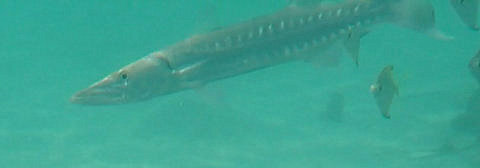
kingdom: Animalia
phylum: Chordata
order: Perciformes
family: Sphyraenidae
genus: Sphyraena
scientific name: Sphyraena barracuda
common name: Great barracuda
